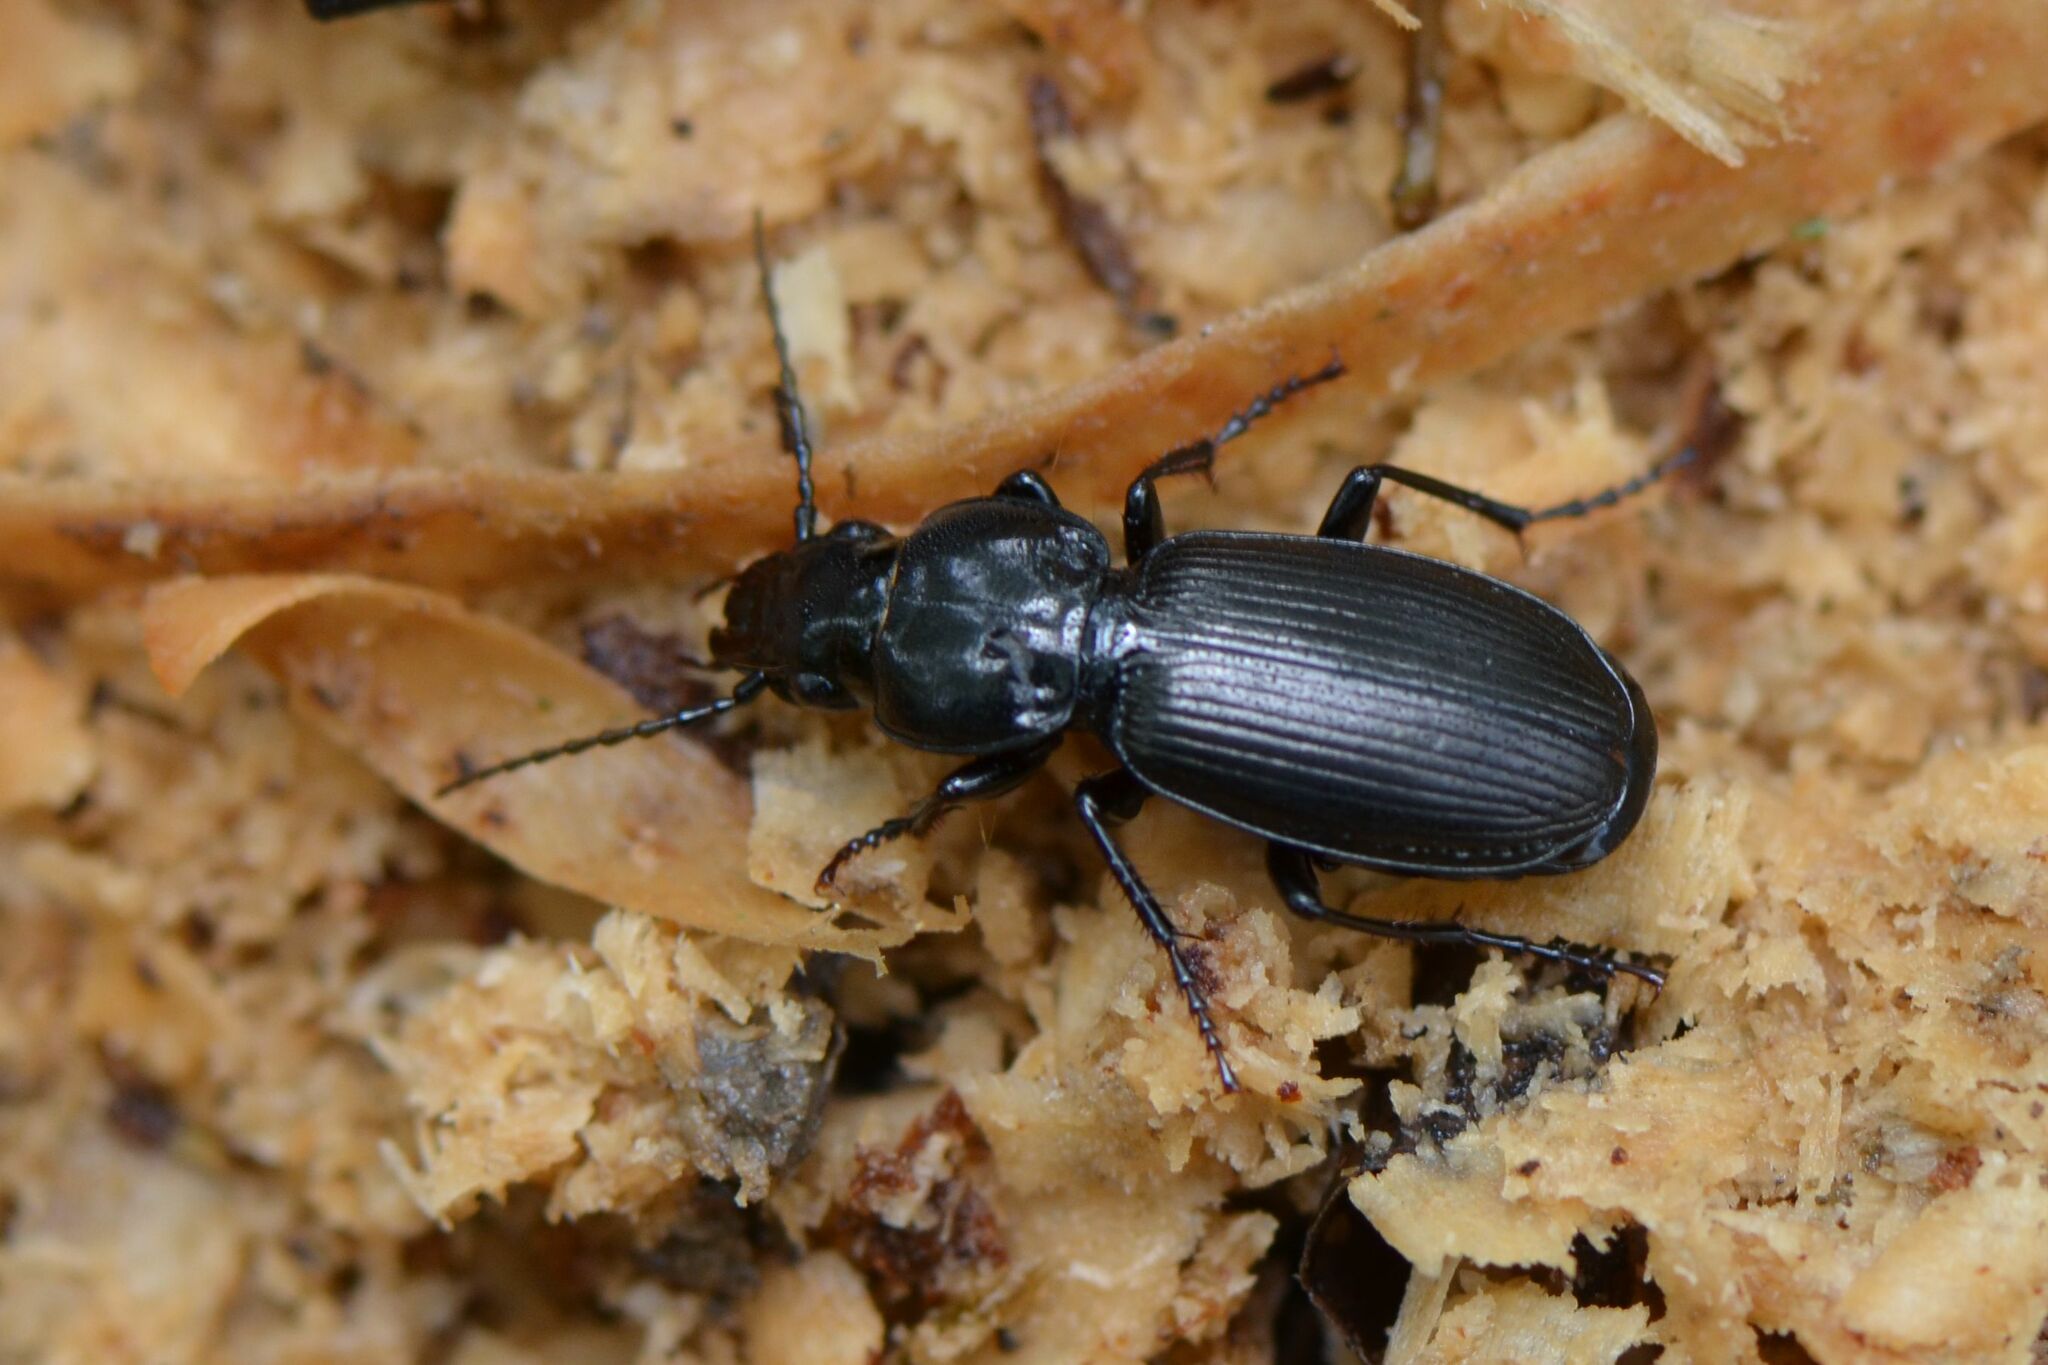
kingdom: Animalia
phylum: Arthropoda
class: Insecta
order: Coleoptera
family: Carabidae
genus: Pterostichus
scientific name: Pterostichus madidus
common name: Black clock
